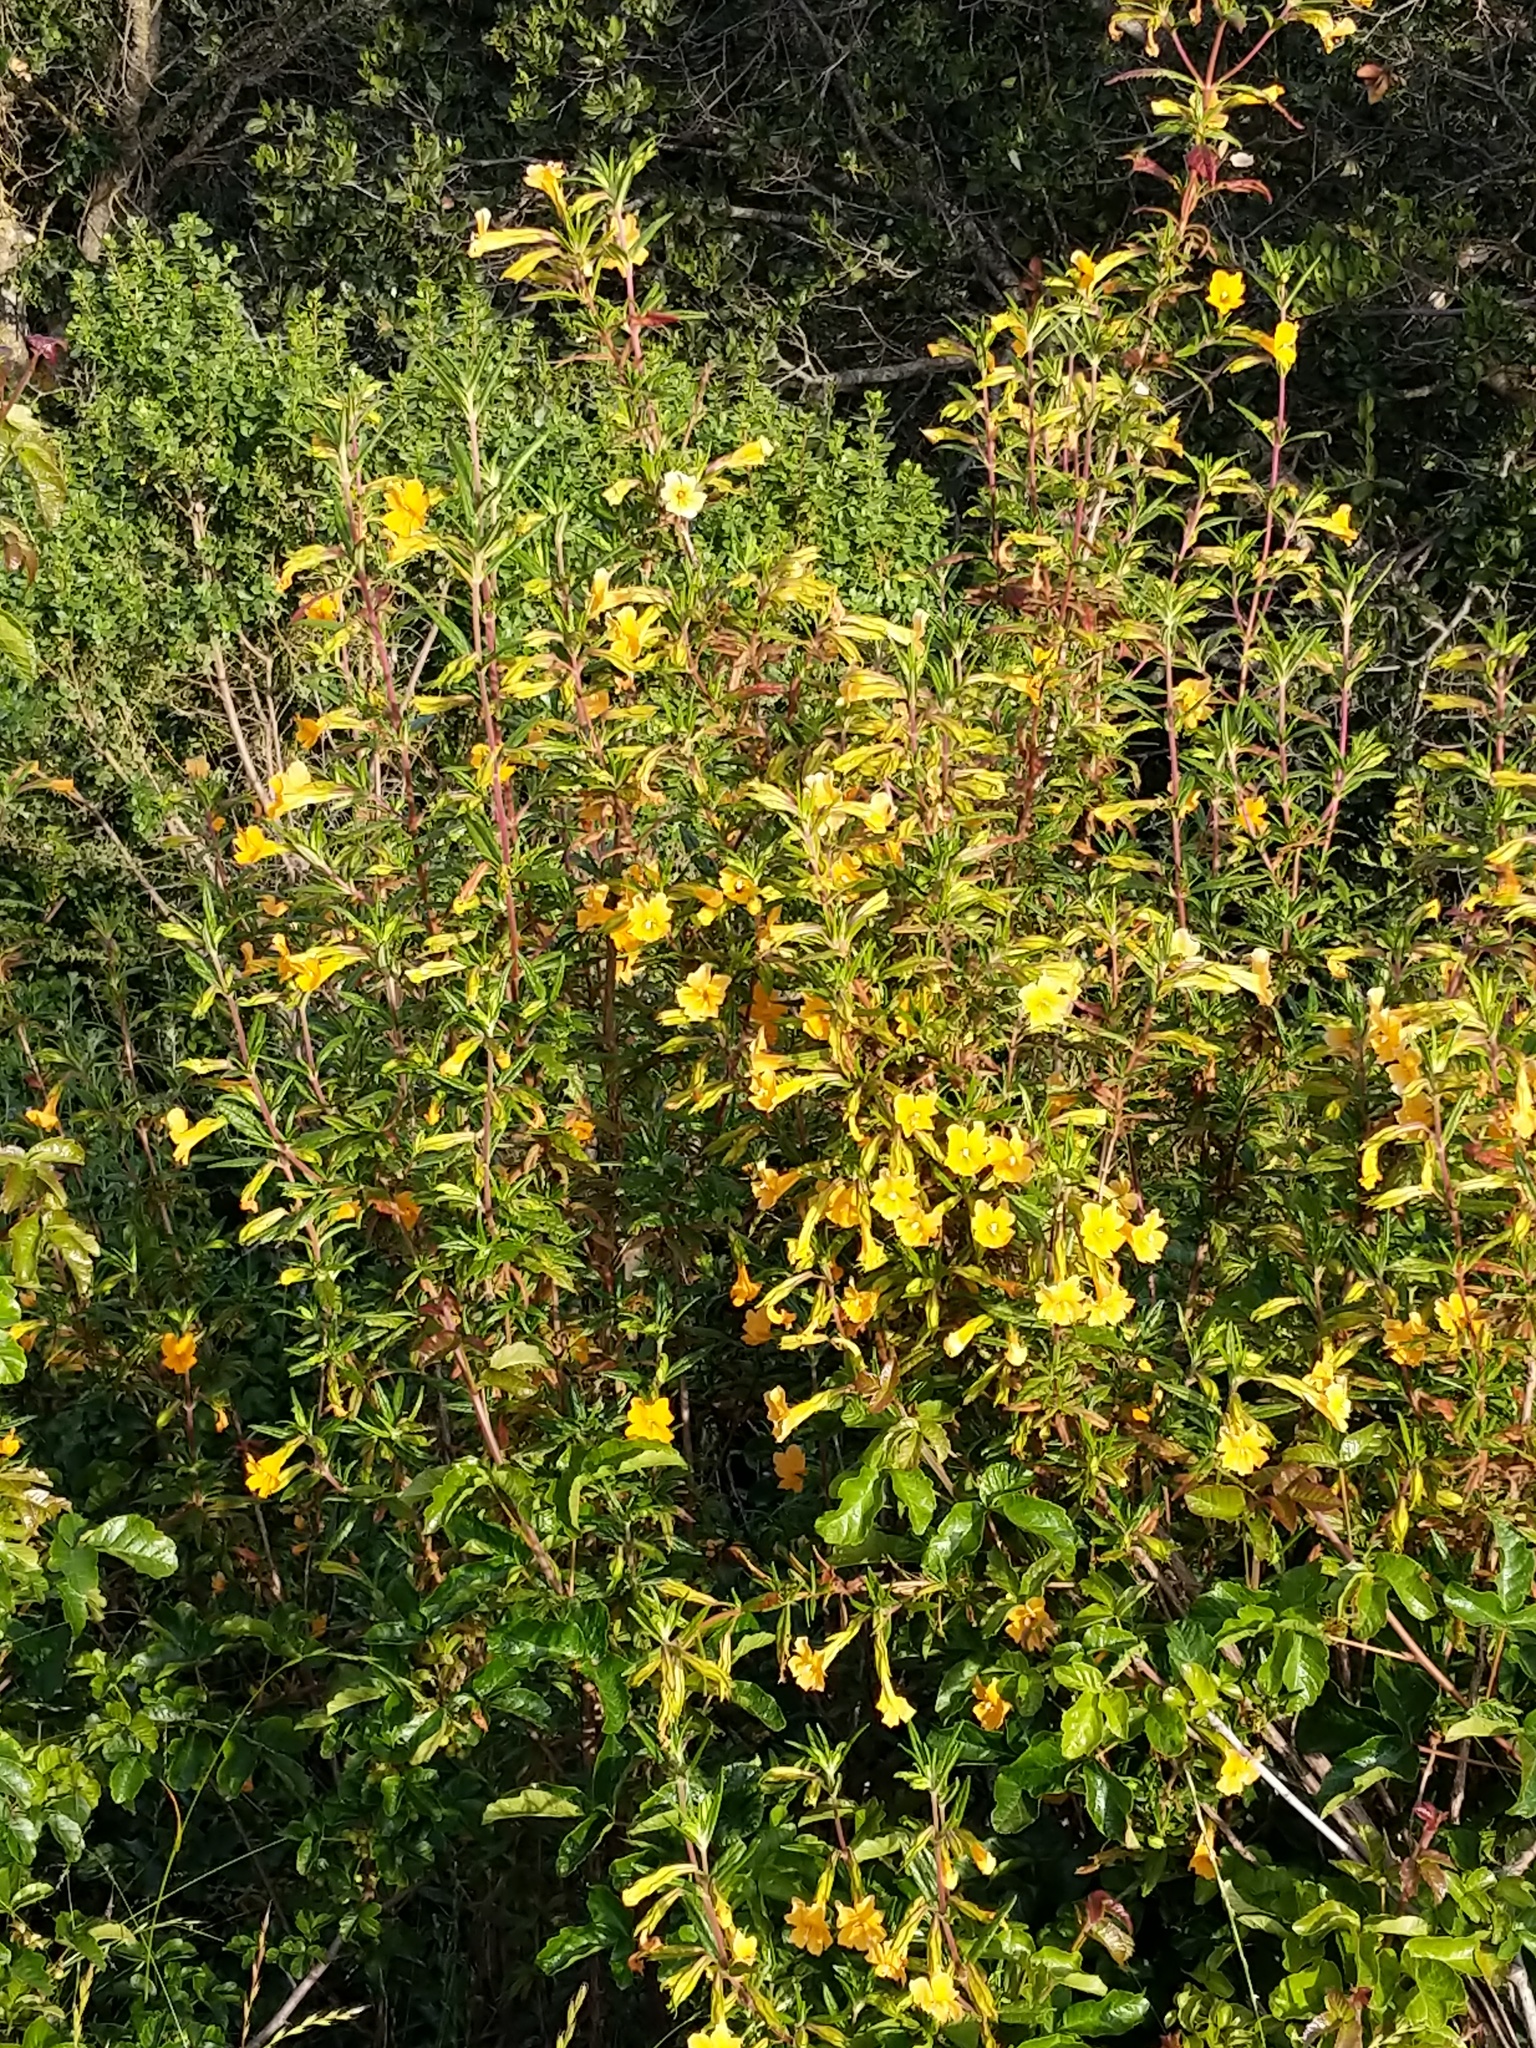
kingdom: Plantae
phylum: Tracheophyta
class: Magnoliopsida
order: Lamiales
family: Phrymaceae
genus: Diplacus
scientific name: Diplacus aurantiacus
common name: Bush monkey-flower
